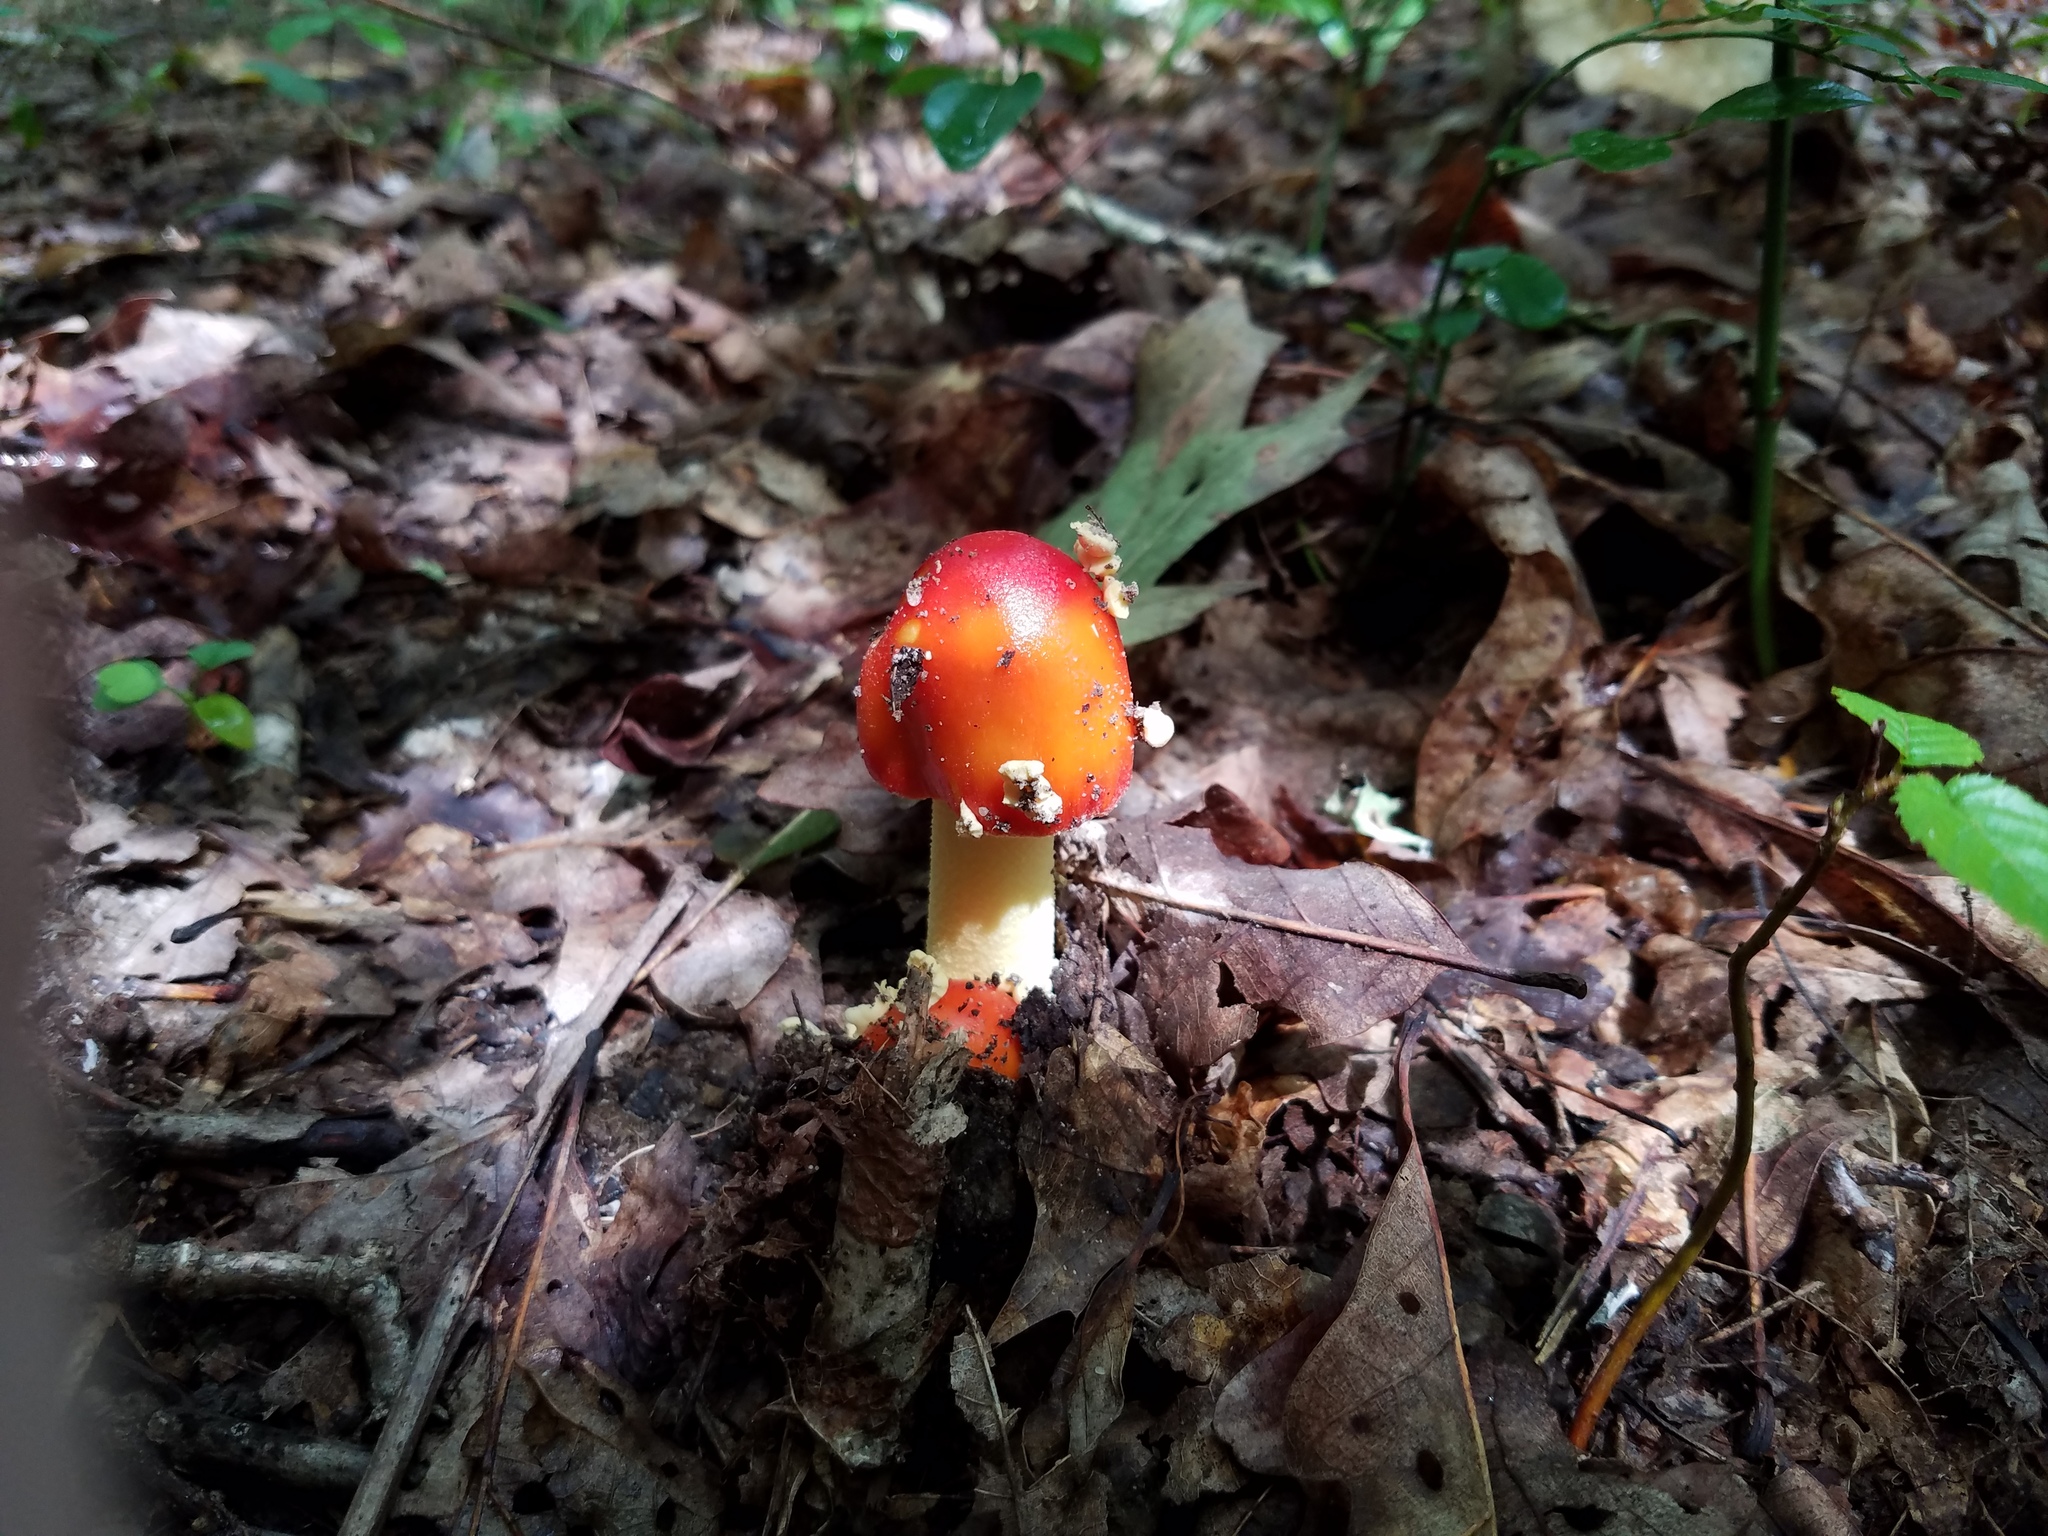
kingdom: Fungi
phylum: Basidiomycota
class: Agaricomycetes
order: Agaricales
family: Amanitaceae
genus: Amanita
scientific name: Amanita parcivolvata
